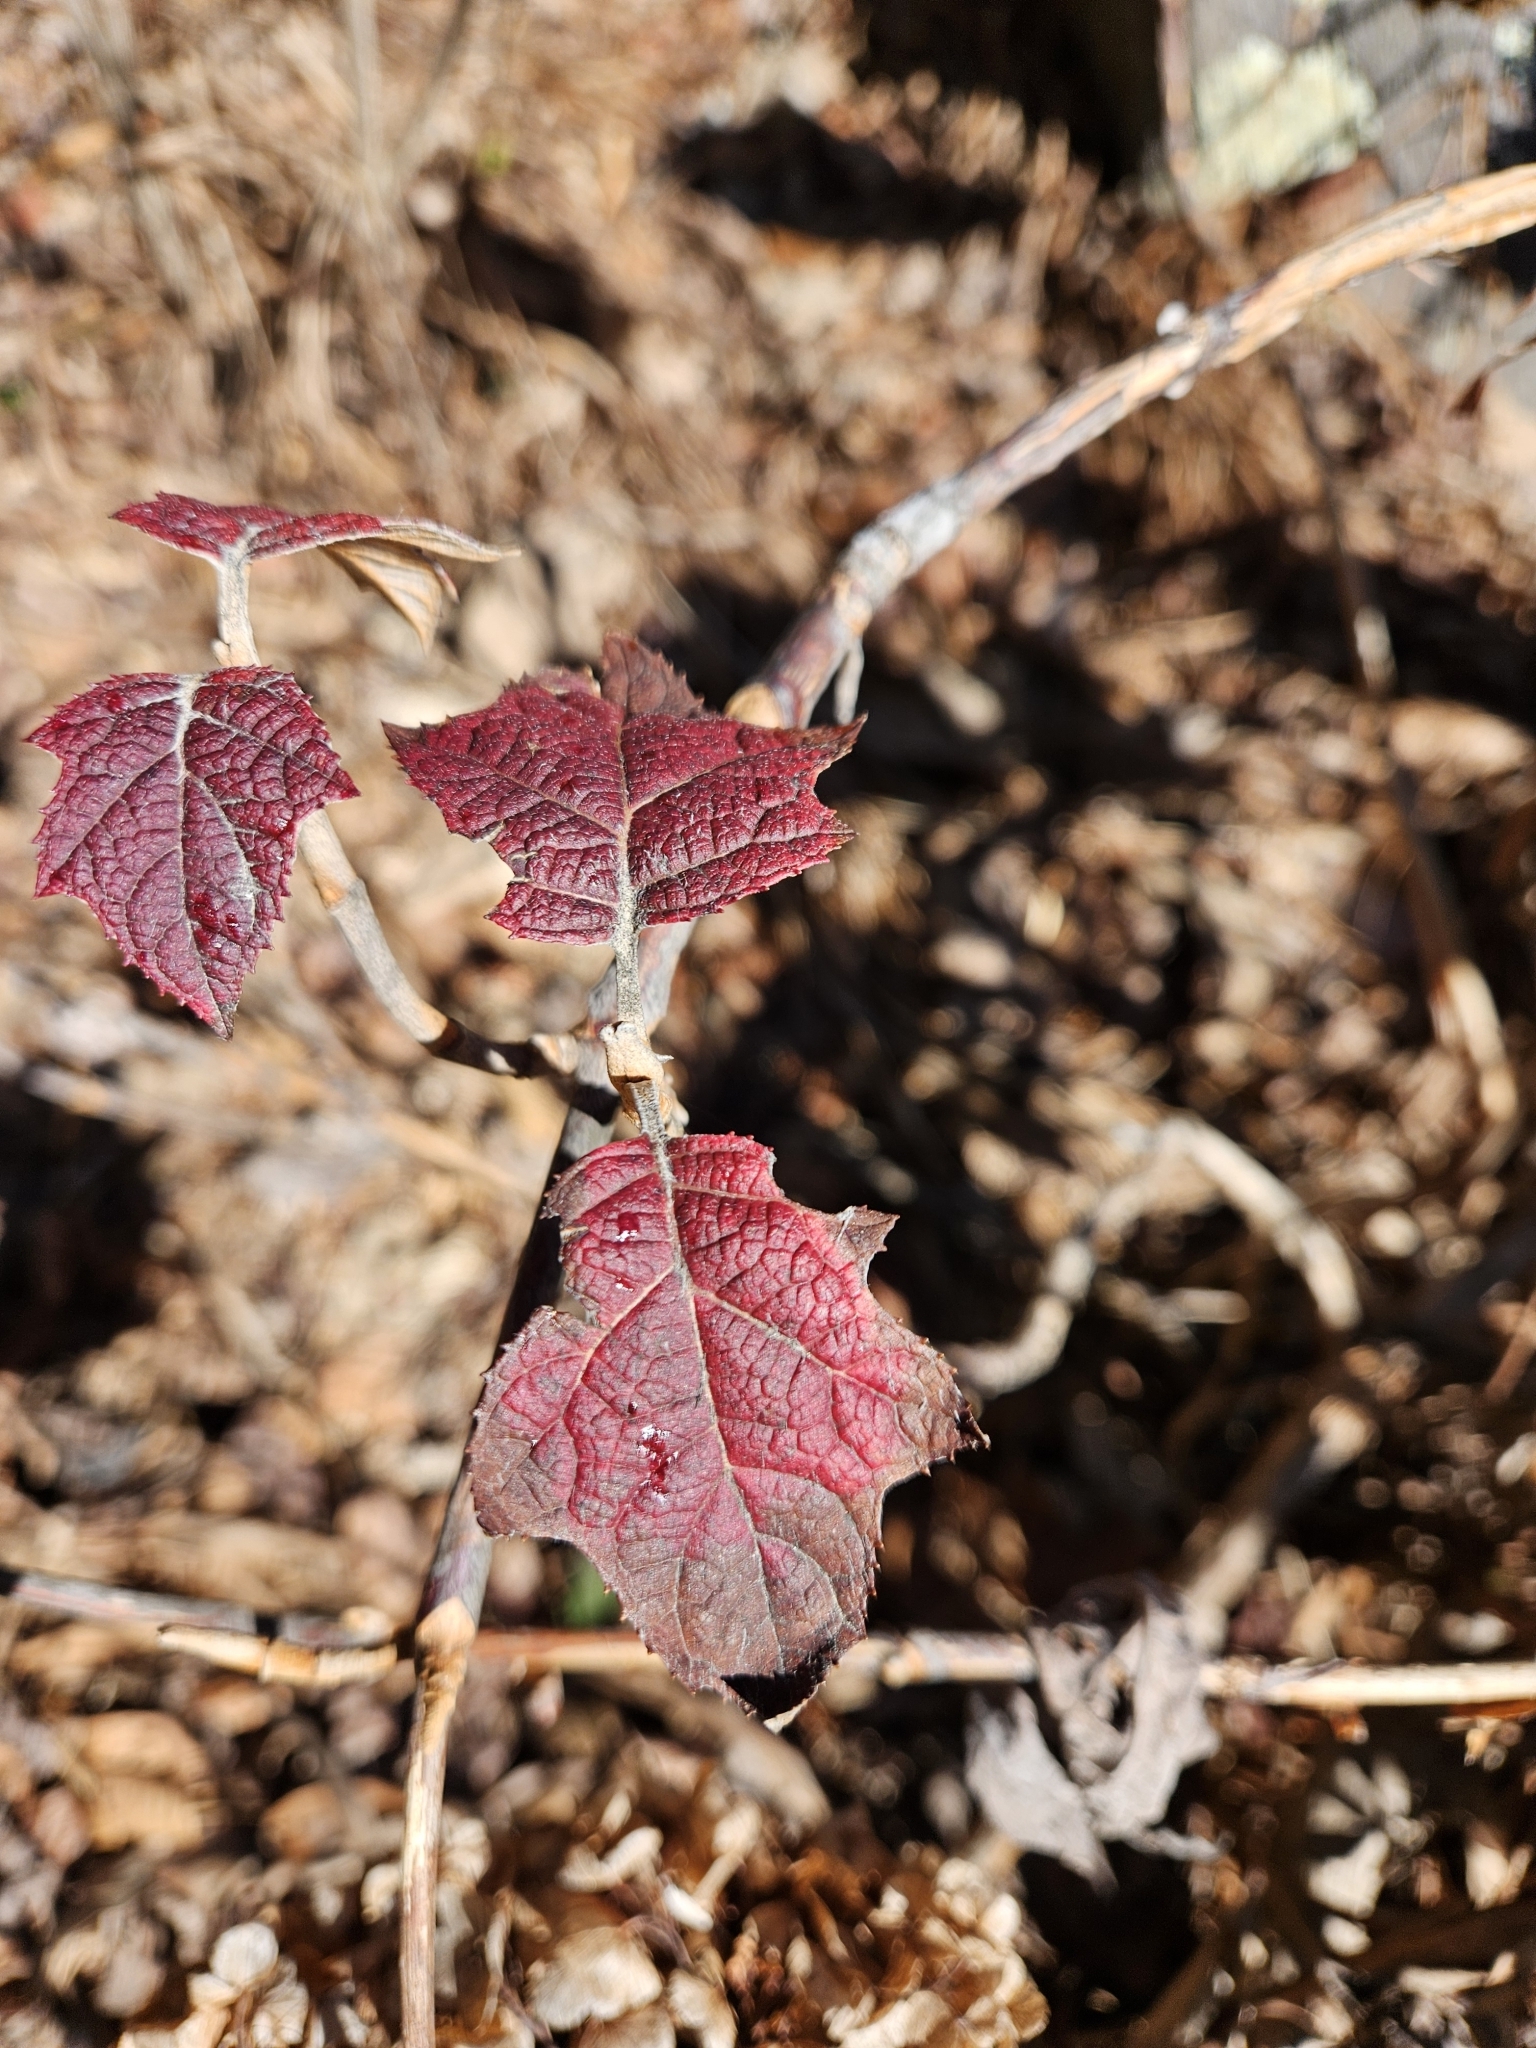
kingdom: Plantae
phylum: Tracheophyta
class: Magnoliopsida
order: Cornales
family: Hydrangeaceae
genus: Hydrangea
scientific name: Hydrangea quercifolia
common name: Oak-leaf hydrangea
